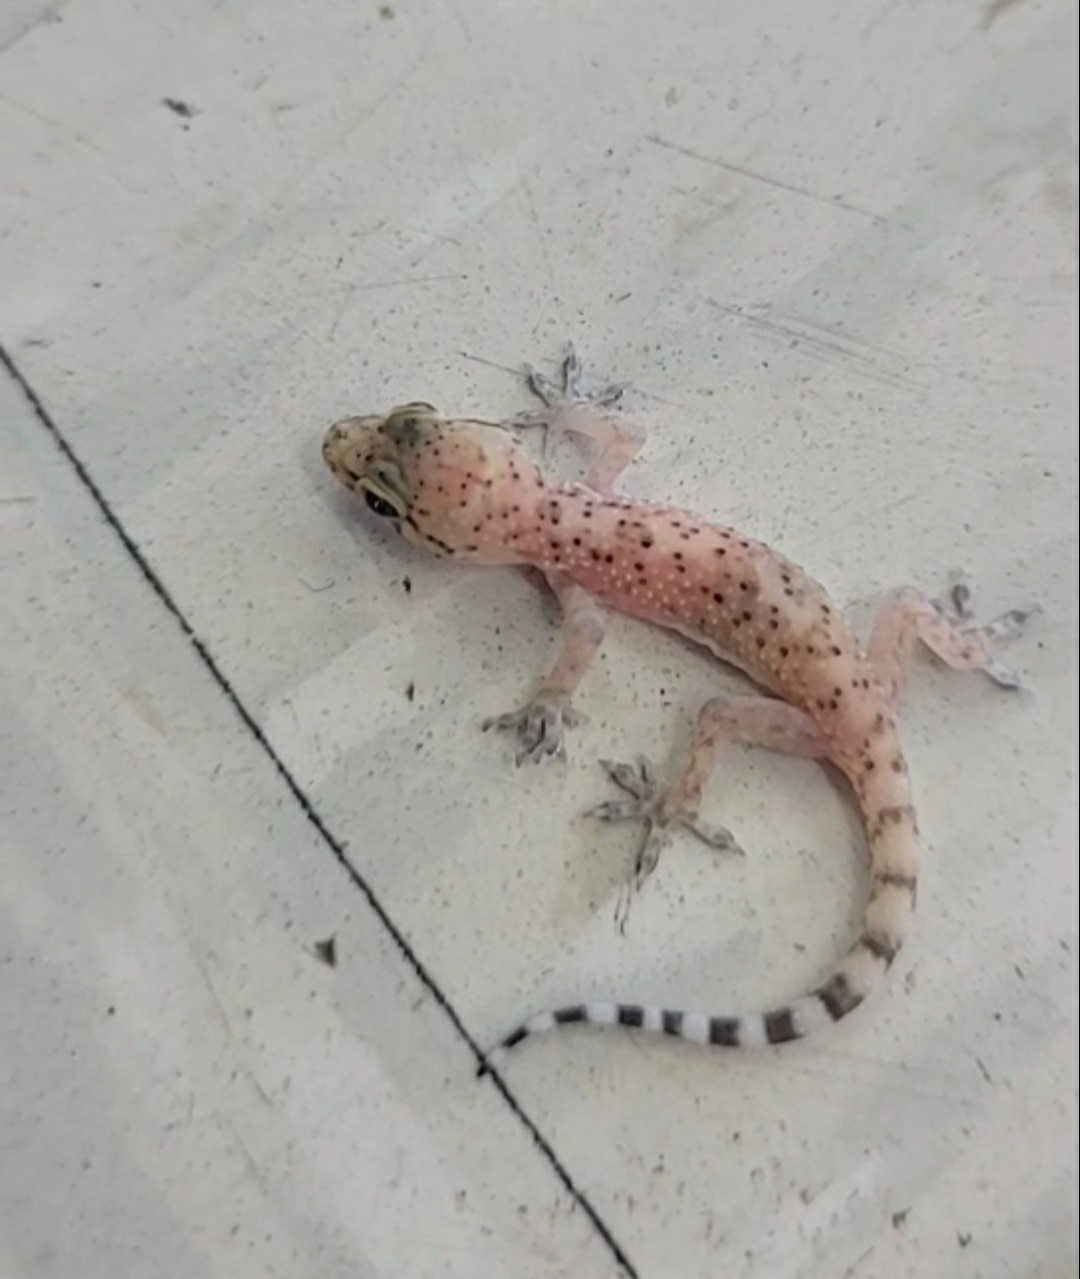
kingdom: Animalia
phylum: Chordata
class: Squamata
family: Gekkonidae
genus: Hemidactylus
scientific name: Hemidactylus turcicus
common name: Turkish gecko
